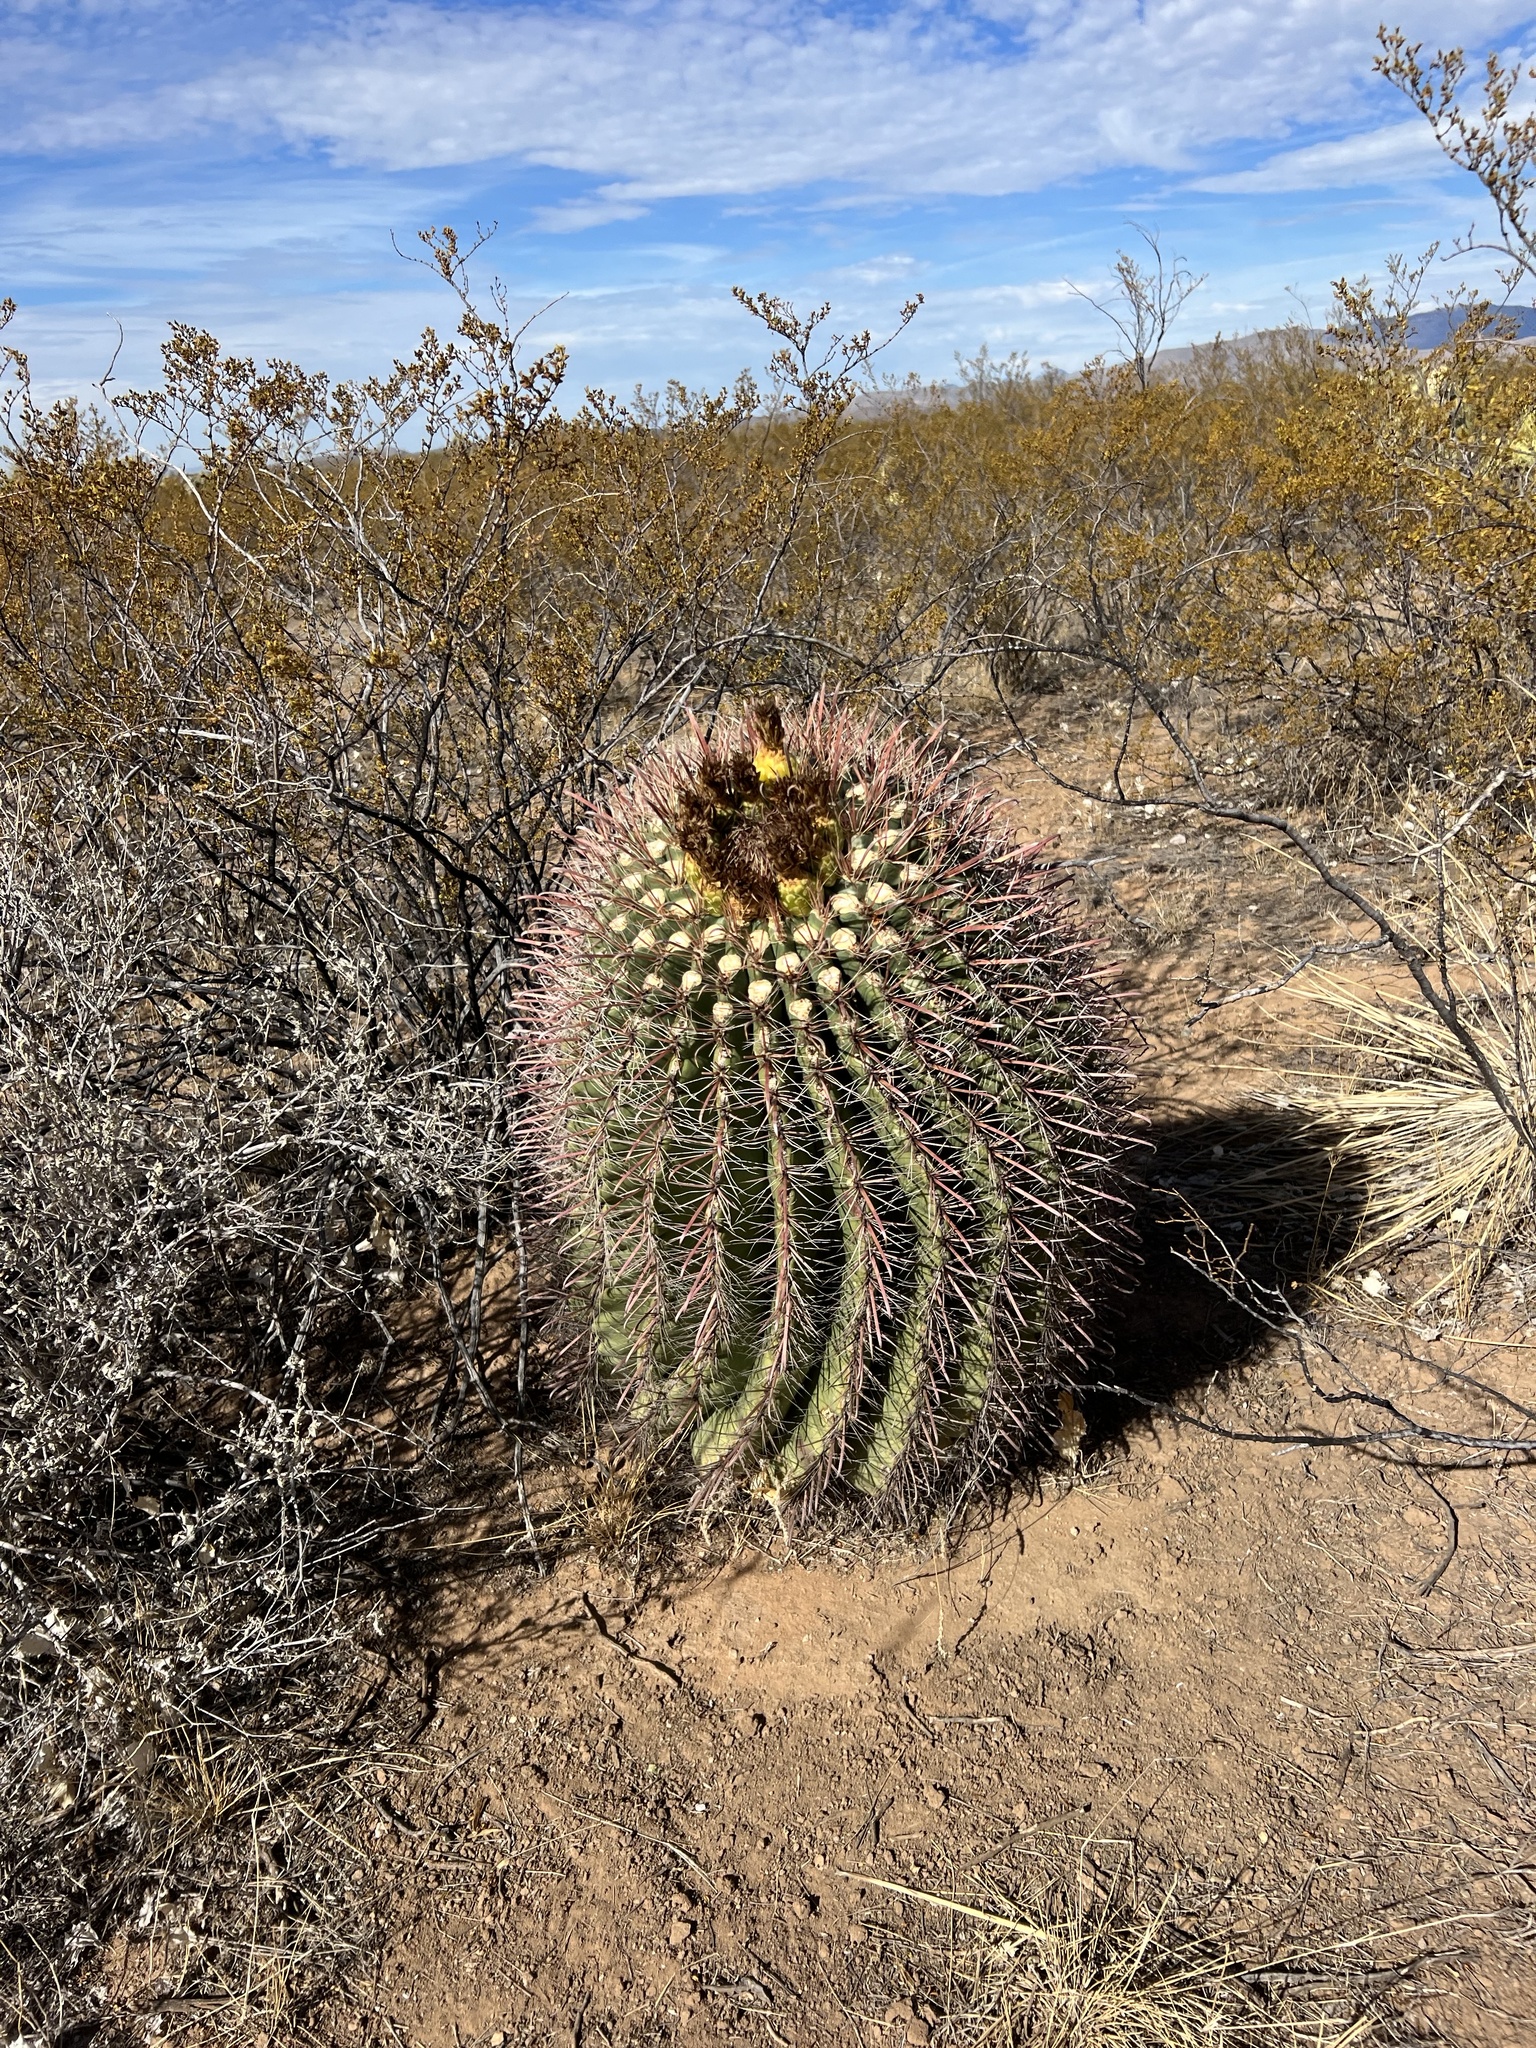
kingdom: Plantae
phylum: Tracheophyta
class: Magnoliopsida
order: Caryophyllales
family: Cactaceae
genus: Ferocactus
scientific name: Ferocactus wislizeni
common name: Candy barrel cactus
